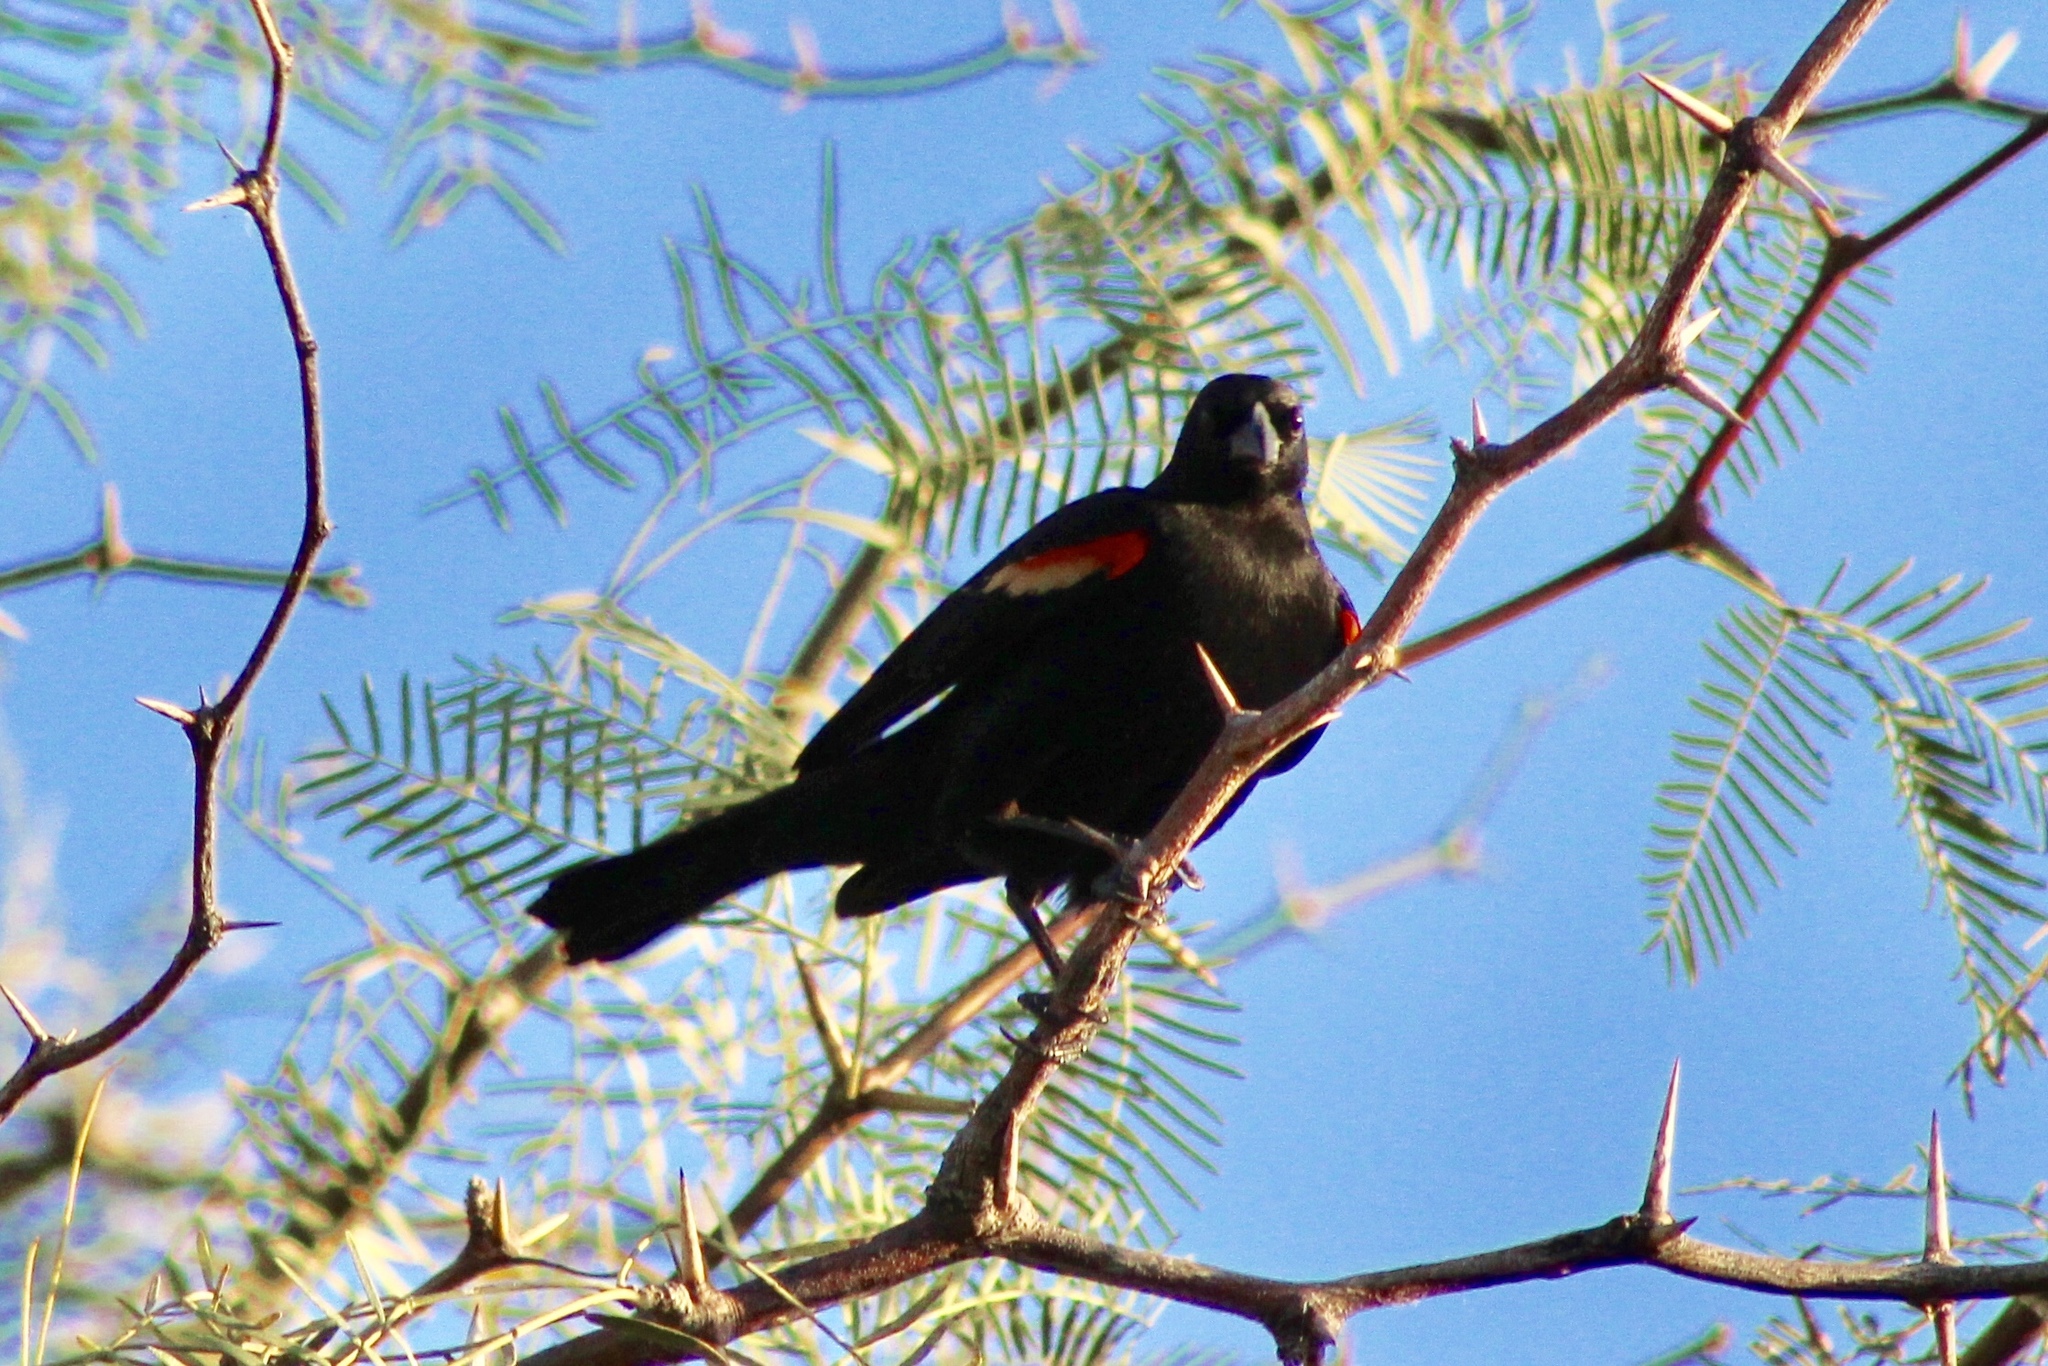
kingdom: Animalia
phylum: Chordata
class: Aves
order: Passeriformes
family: Icteridae
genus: Agelaius
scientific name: Agelaius phoeniceus
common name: Red-winged blackbird
